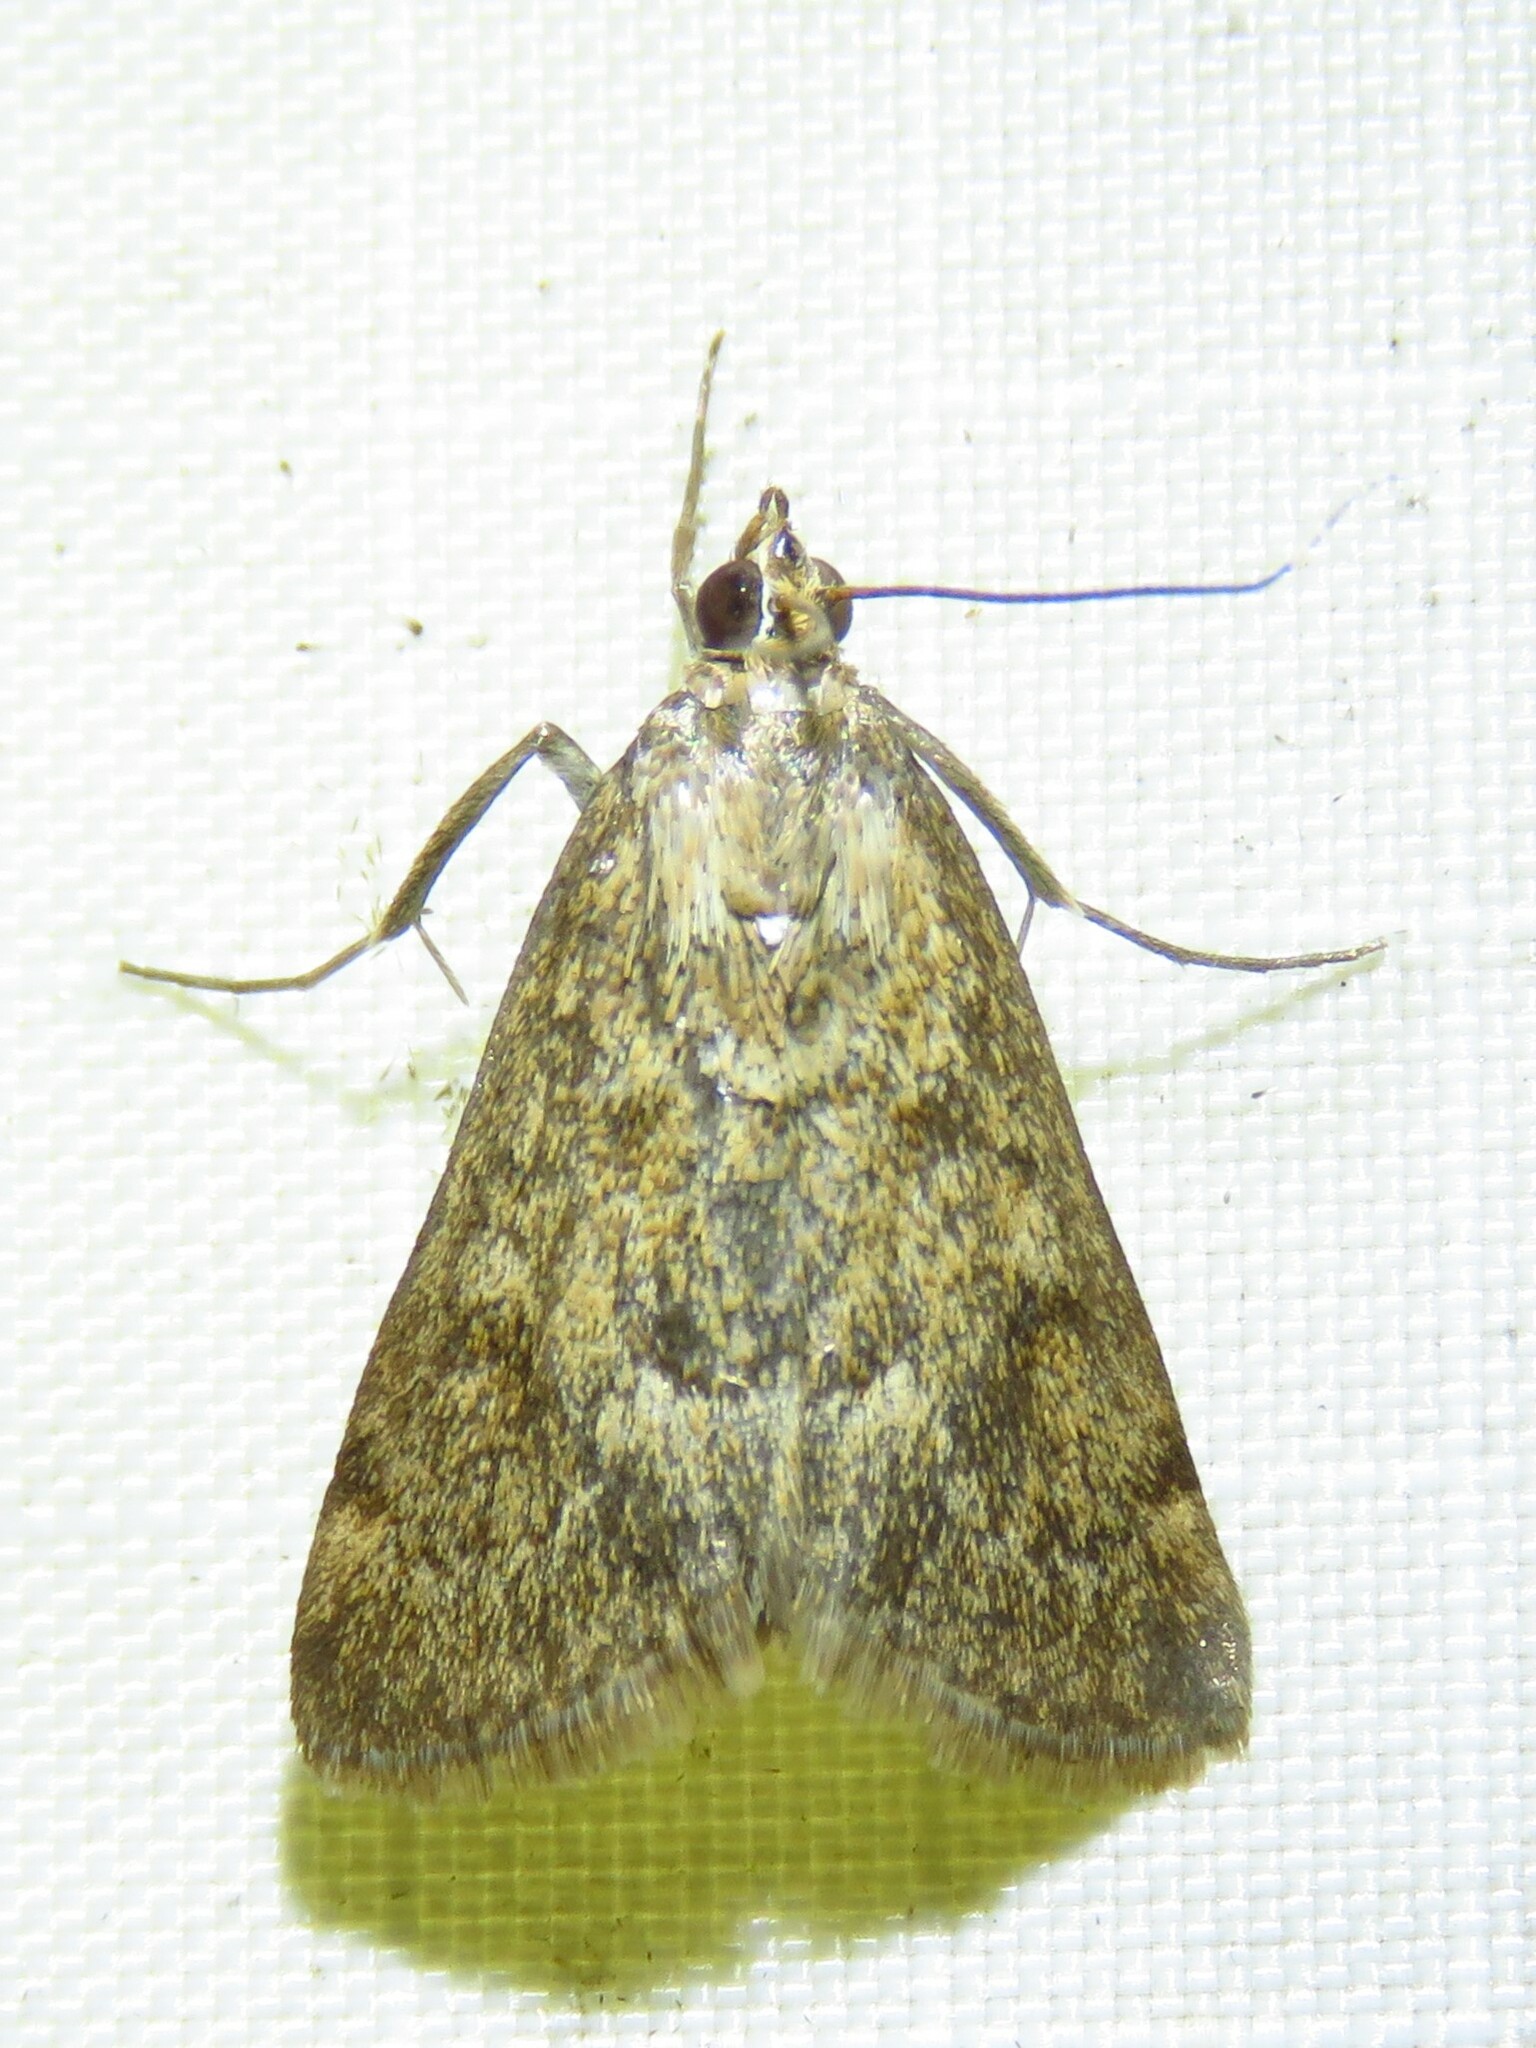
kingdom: Animalia
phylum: Arthropoda
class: Insecta
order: Lepidoptera
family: Crambidae
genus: Achyra
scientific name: Achyra rantalis
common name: Garden webworm
